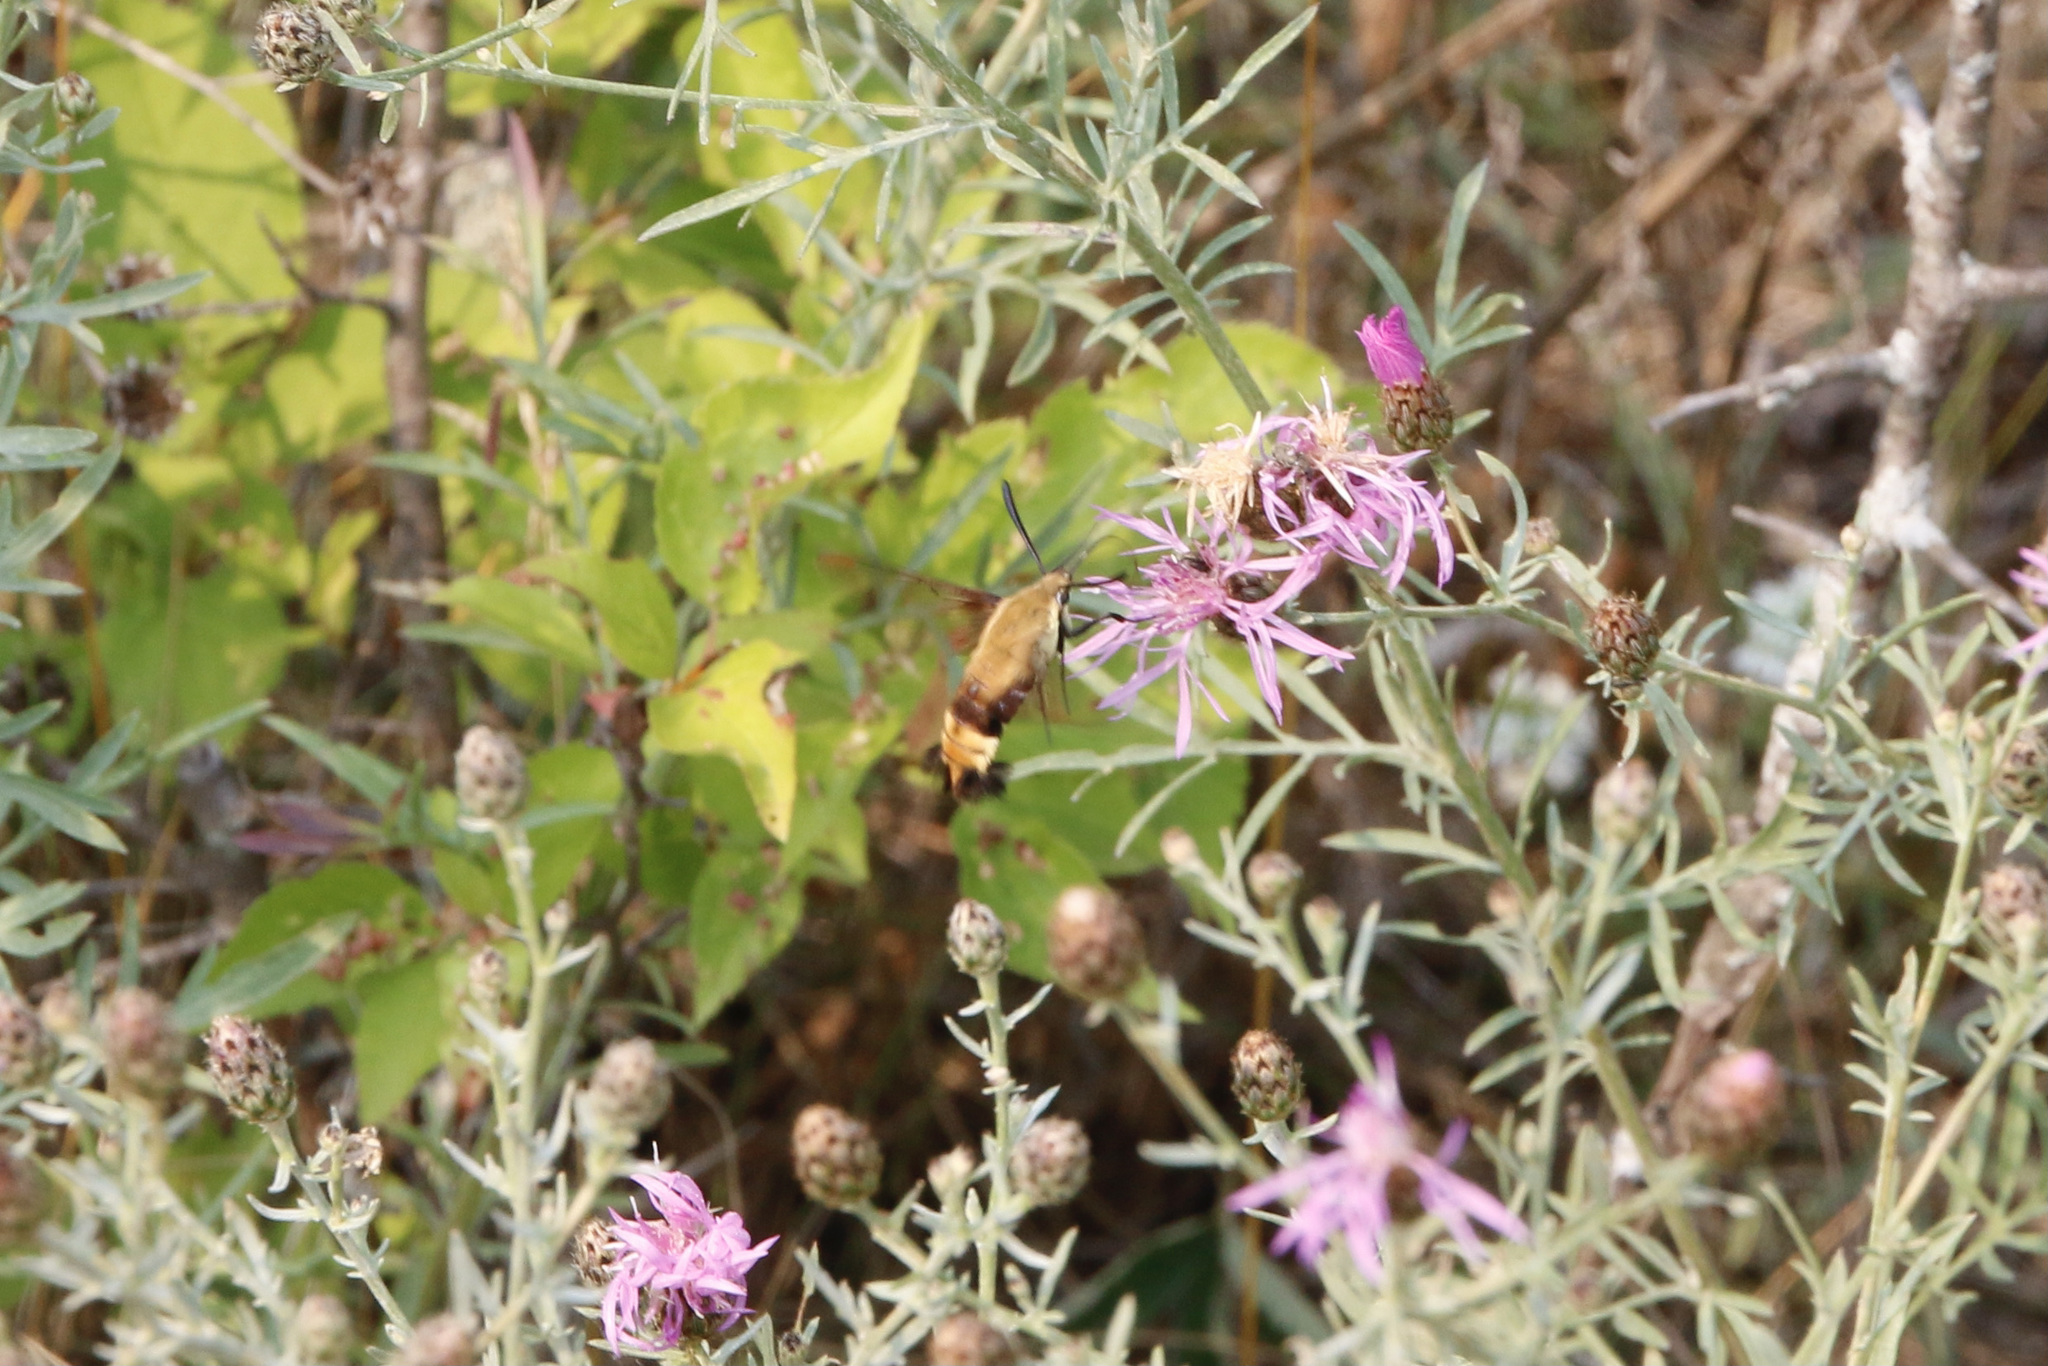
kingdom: Animalia
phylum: Arthropoda
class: Insecta
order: Lepidoptera
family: Sphingidae
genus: Hemaris
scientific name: Hemaris diffinis
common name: Bumblebee moth
